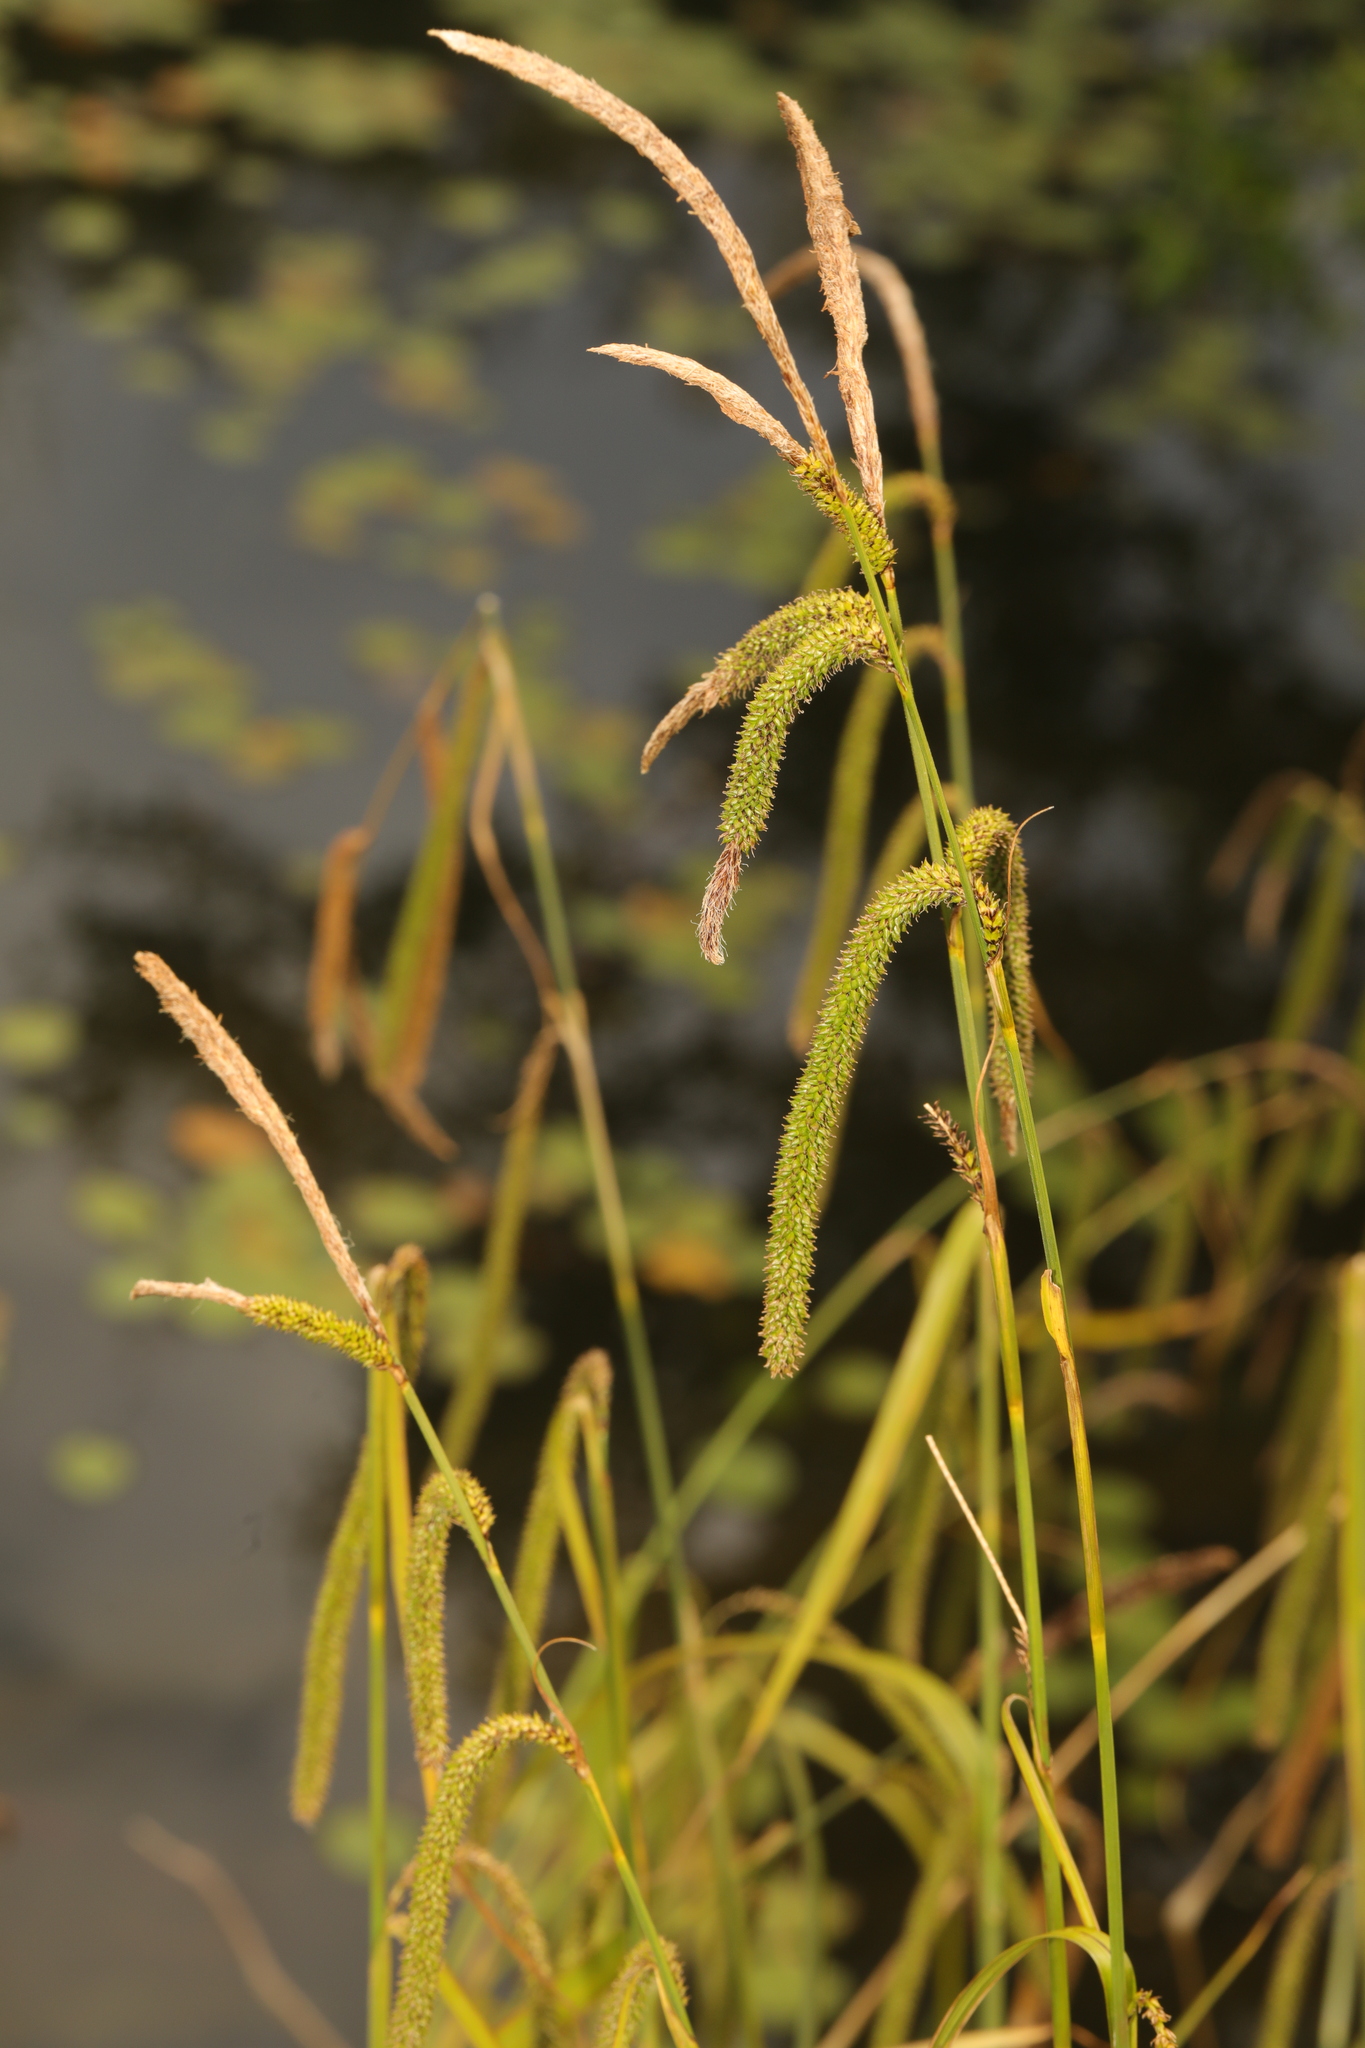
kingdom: Plantae
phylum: Tracheophyta
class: Liliopsida
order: Poales
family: Cyperaceae
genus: Carex
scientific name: Carex pendula
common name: Pendulous sedge
